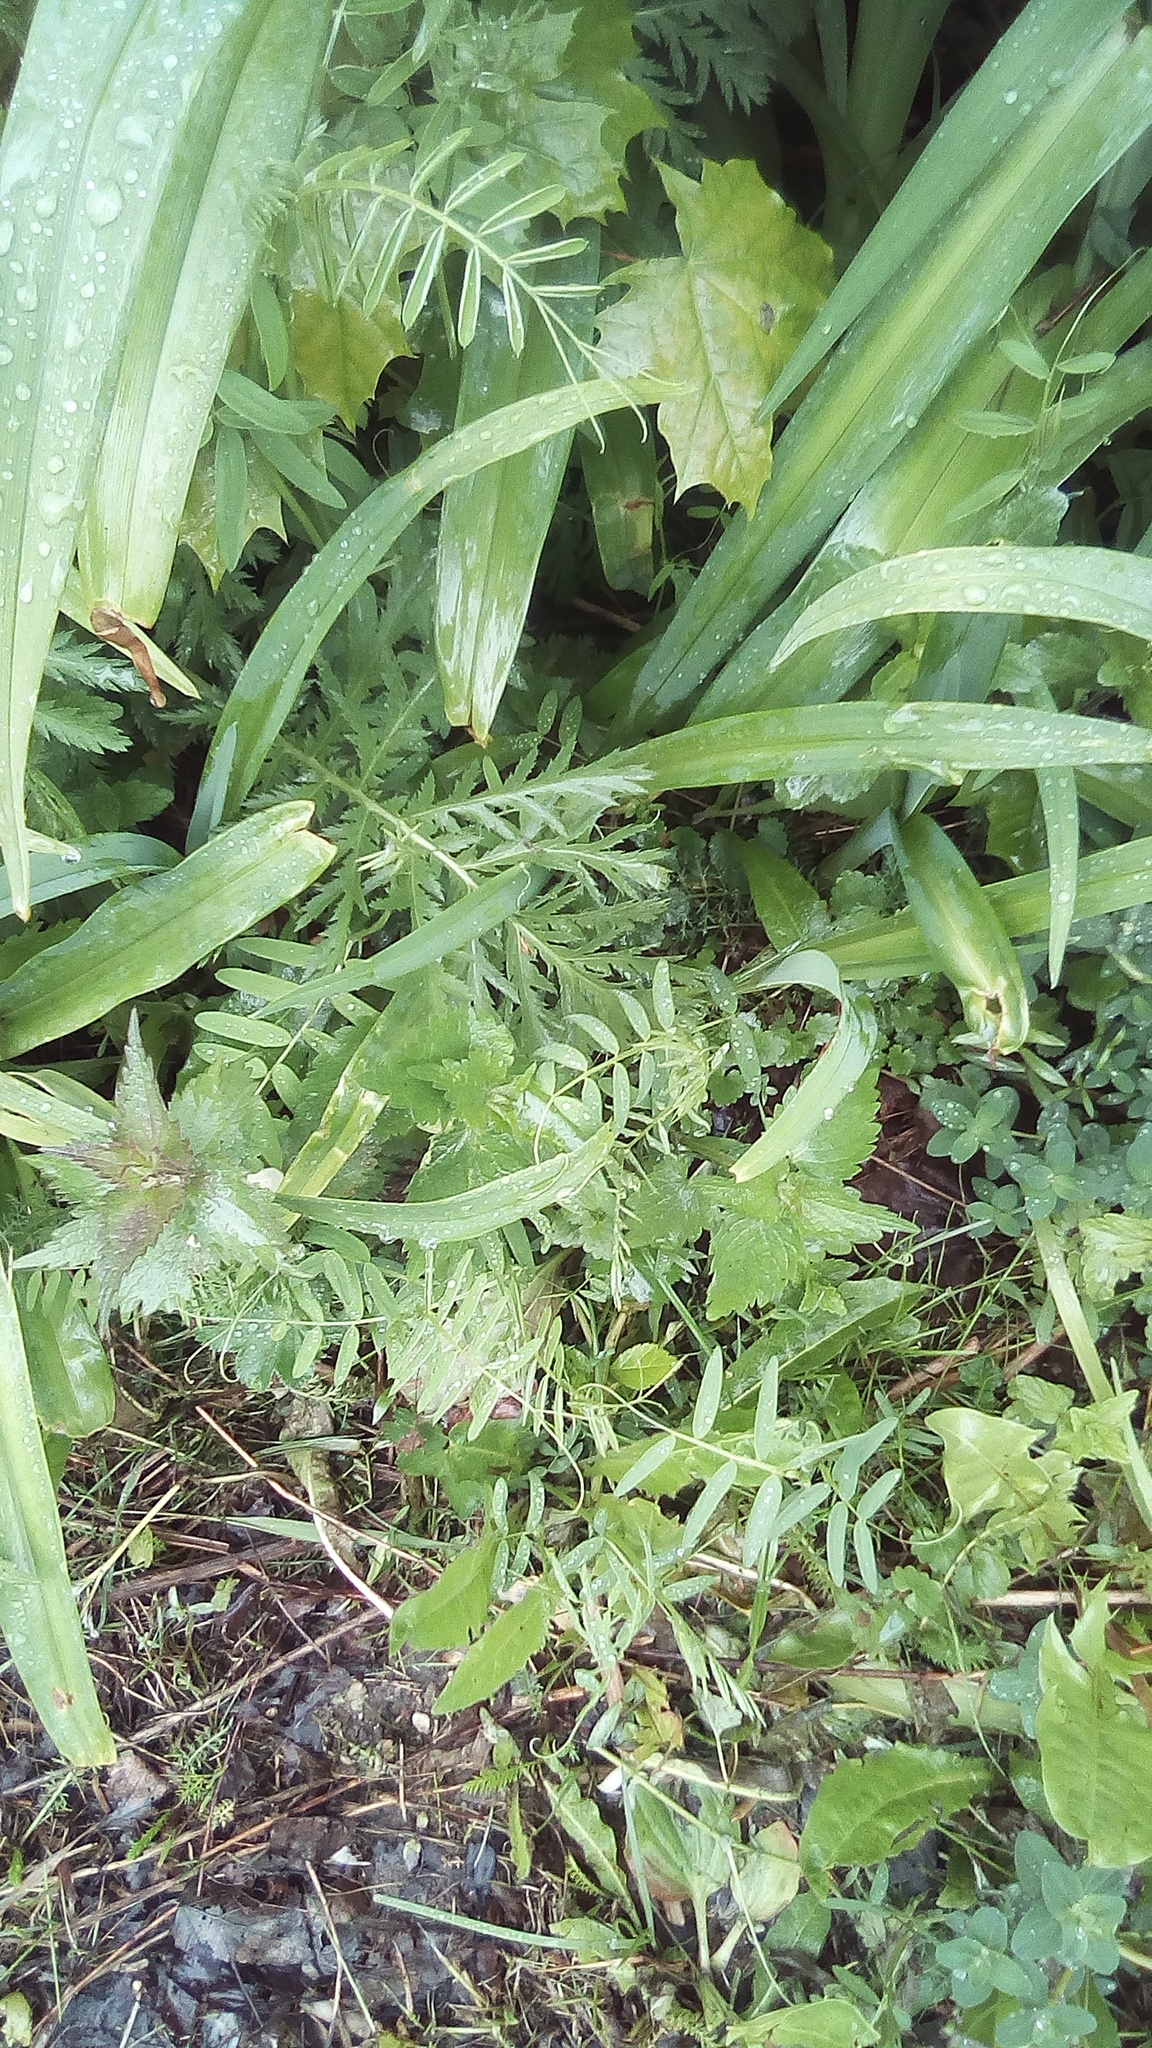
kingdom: Plantae
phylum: Tracheophyta
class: Magnoliopsida
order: Fabales
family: Fabaceae
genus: Vicia
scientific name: Vicia cracca
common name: Bird vetch
